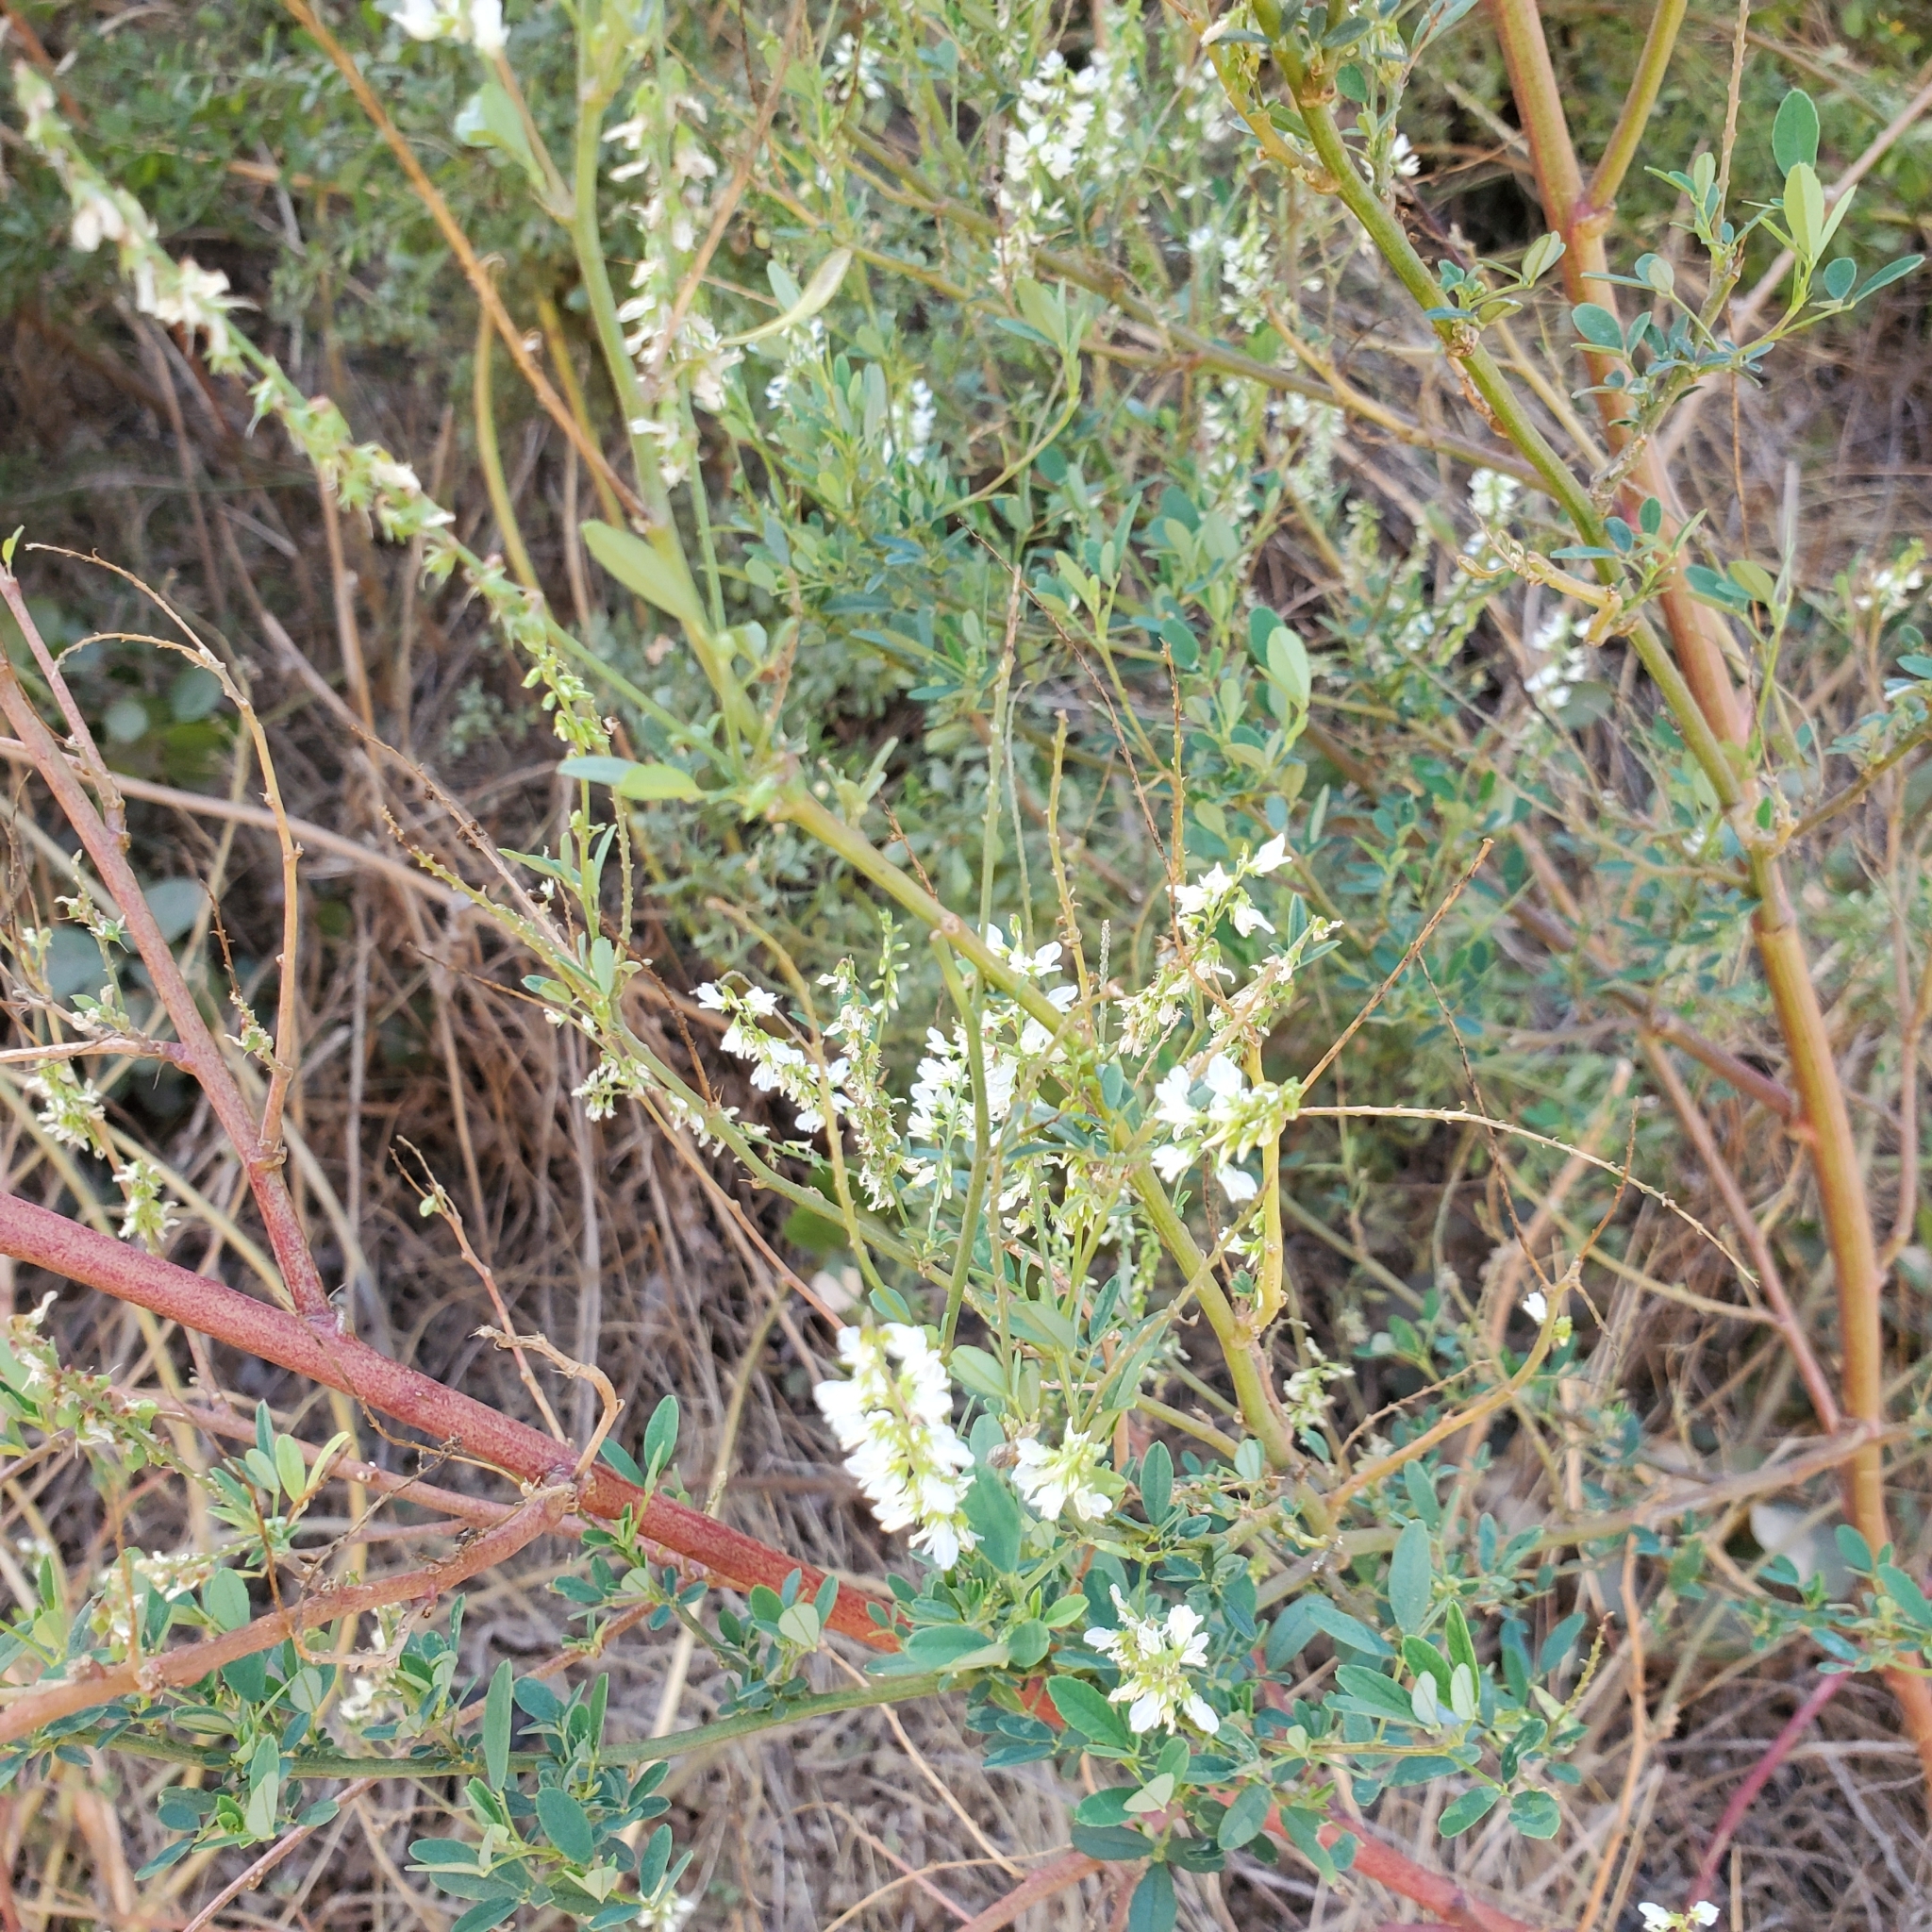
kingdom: Plantae
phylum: Tracheophyta
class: Magnoliopsida
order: Fabales
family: Fabaceae
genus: Melilotus
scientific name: Melilotus albus
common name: White melilot
